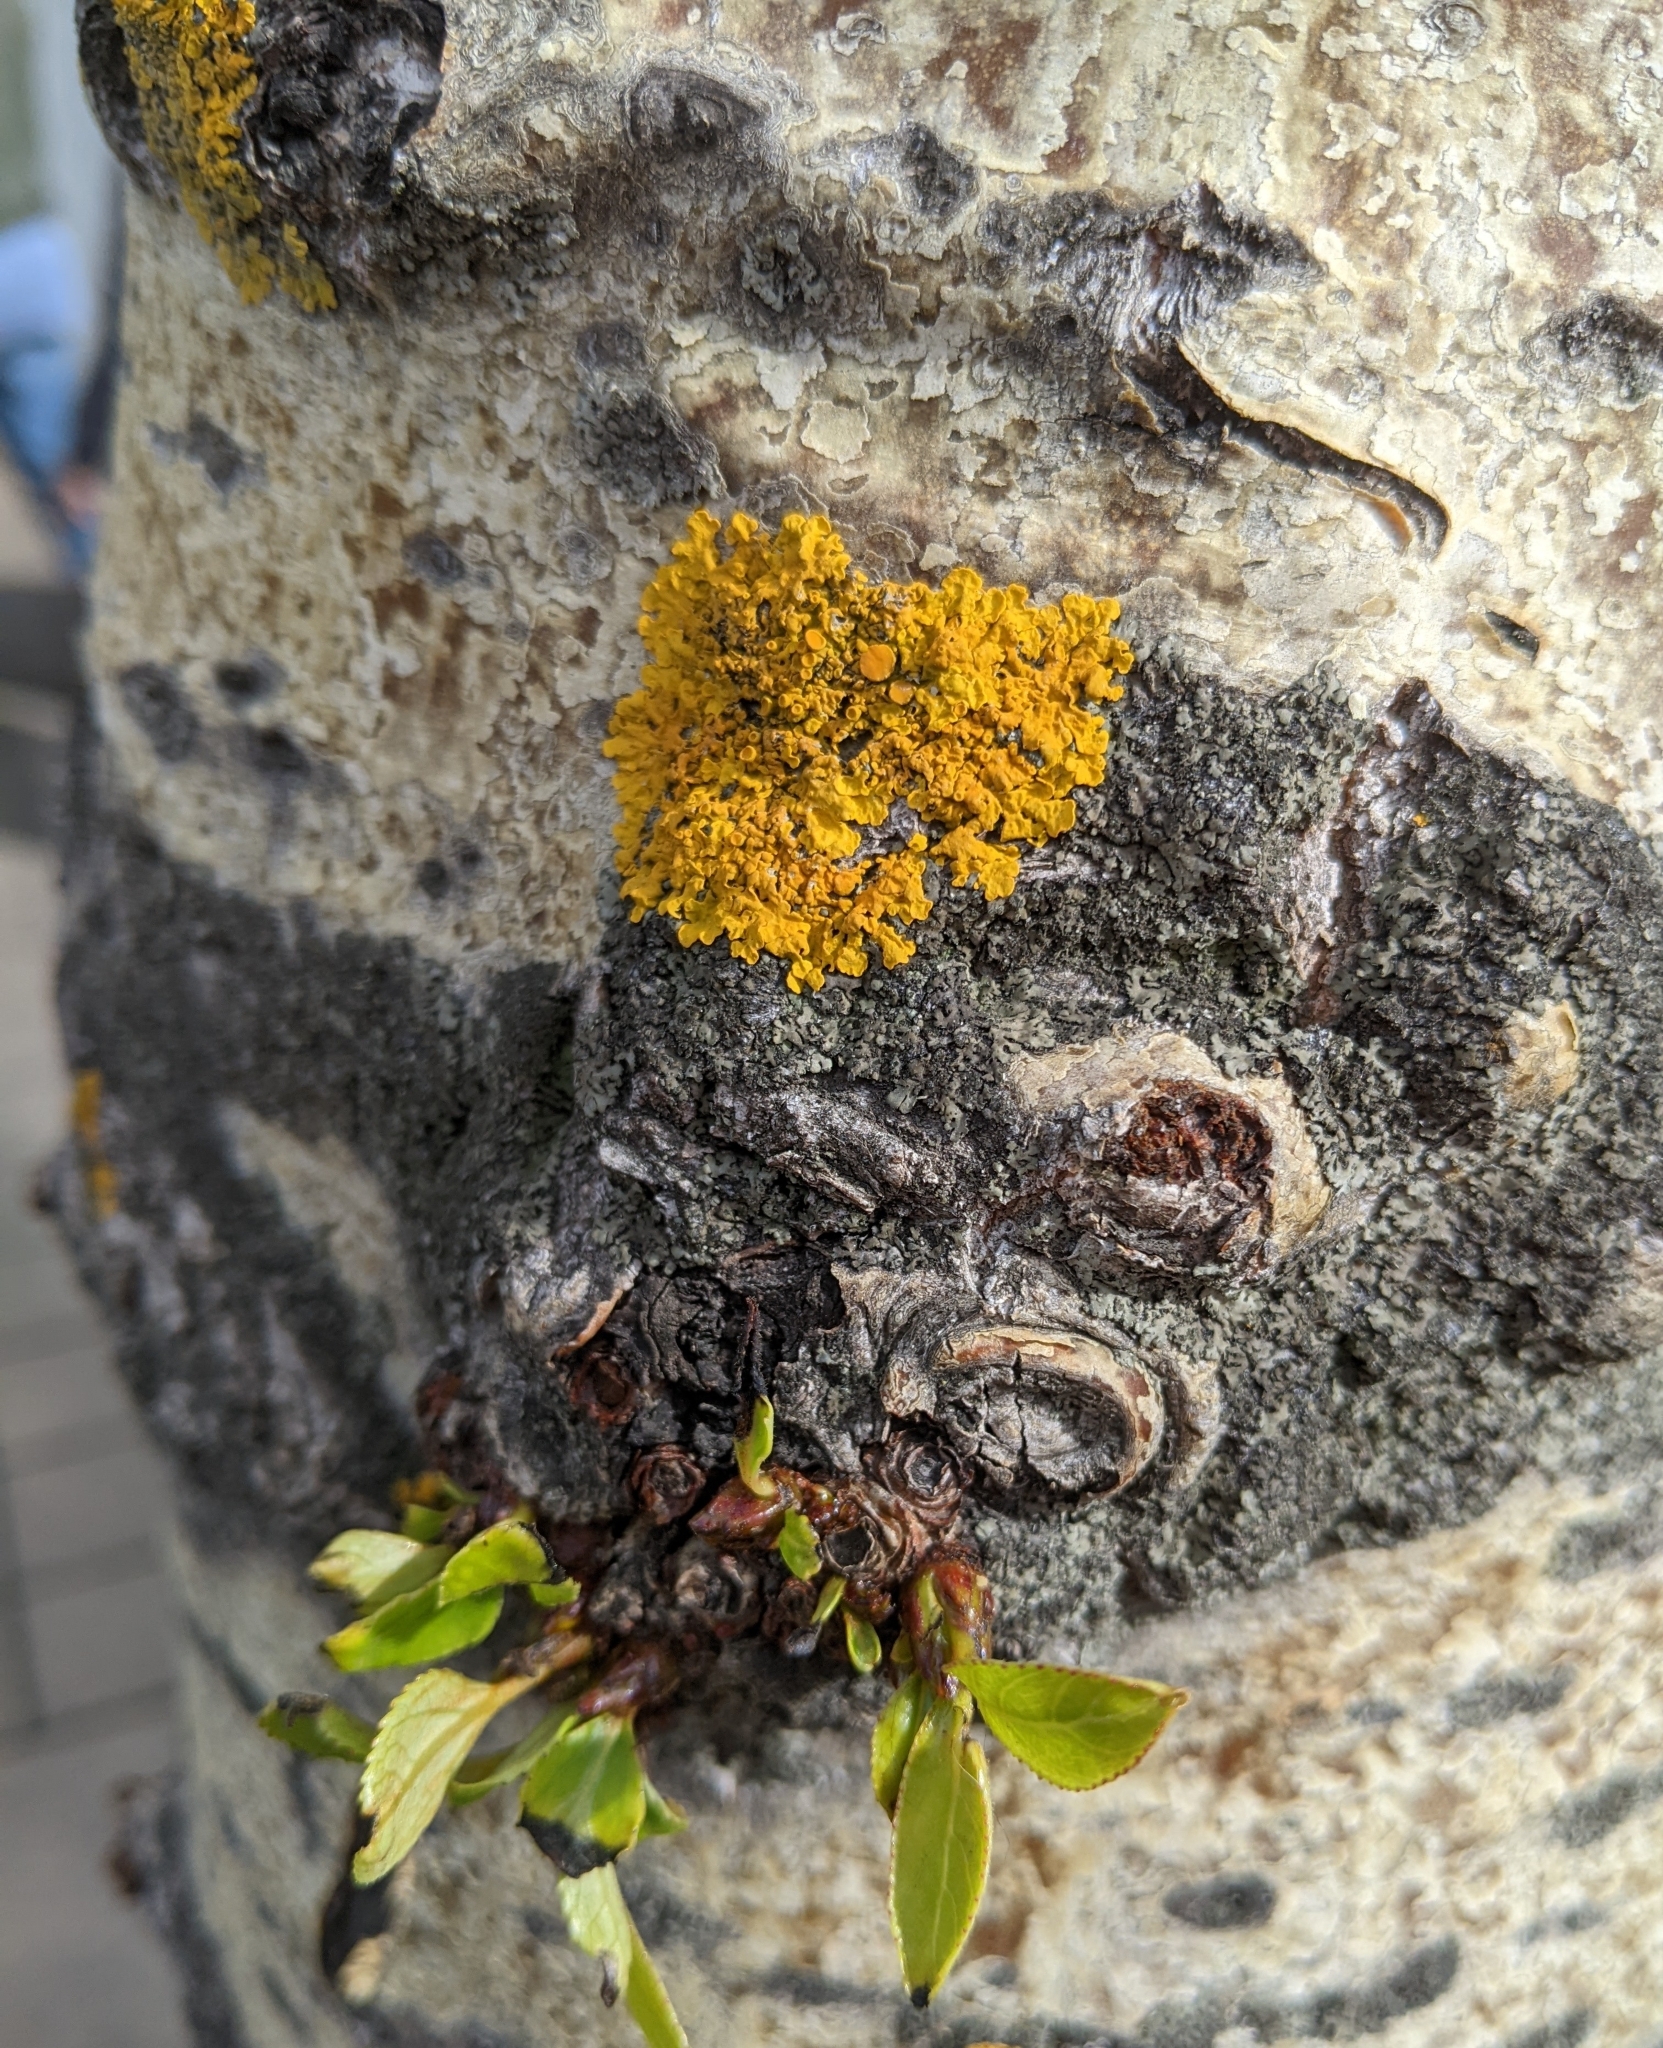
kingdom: Fungi
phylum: Ascomycota
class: Lecanoromycetes
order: Teloschistales
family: Teloschistaceae
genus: Xanthoria
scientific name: Xanthoria parietina
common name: Common orange lichen
